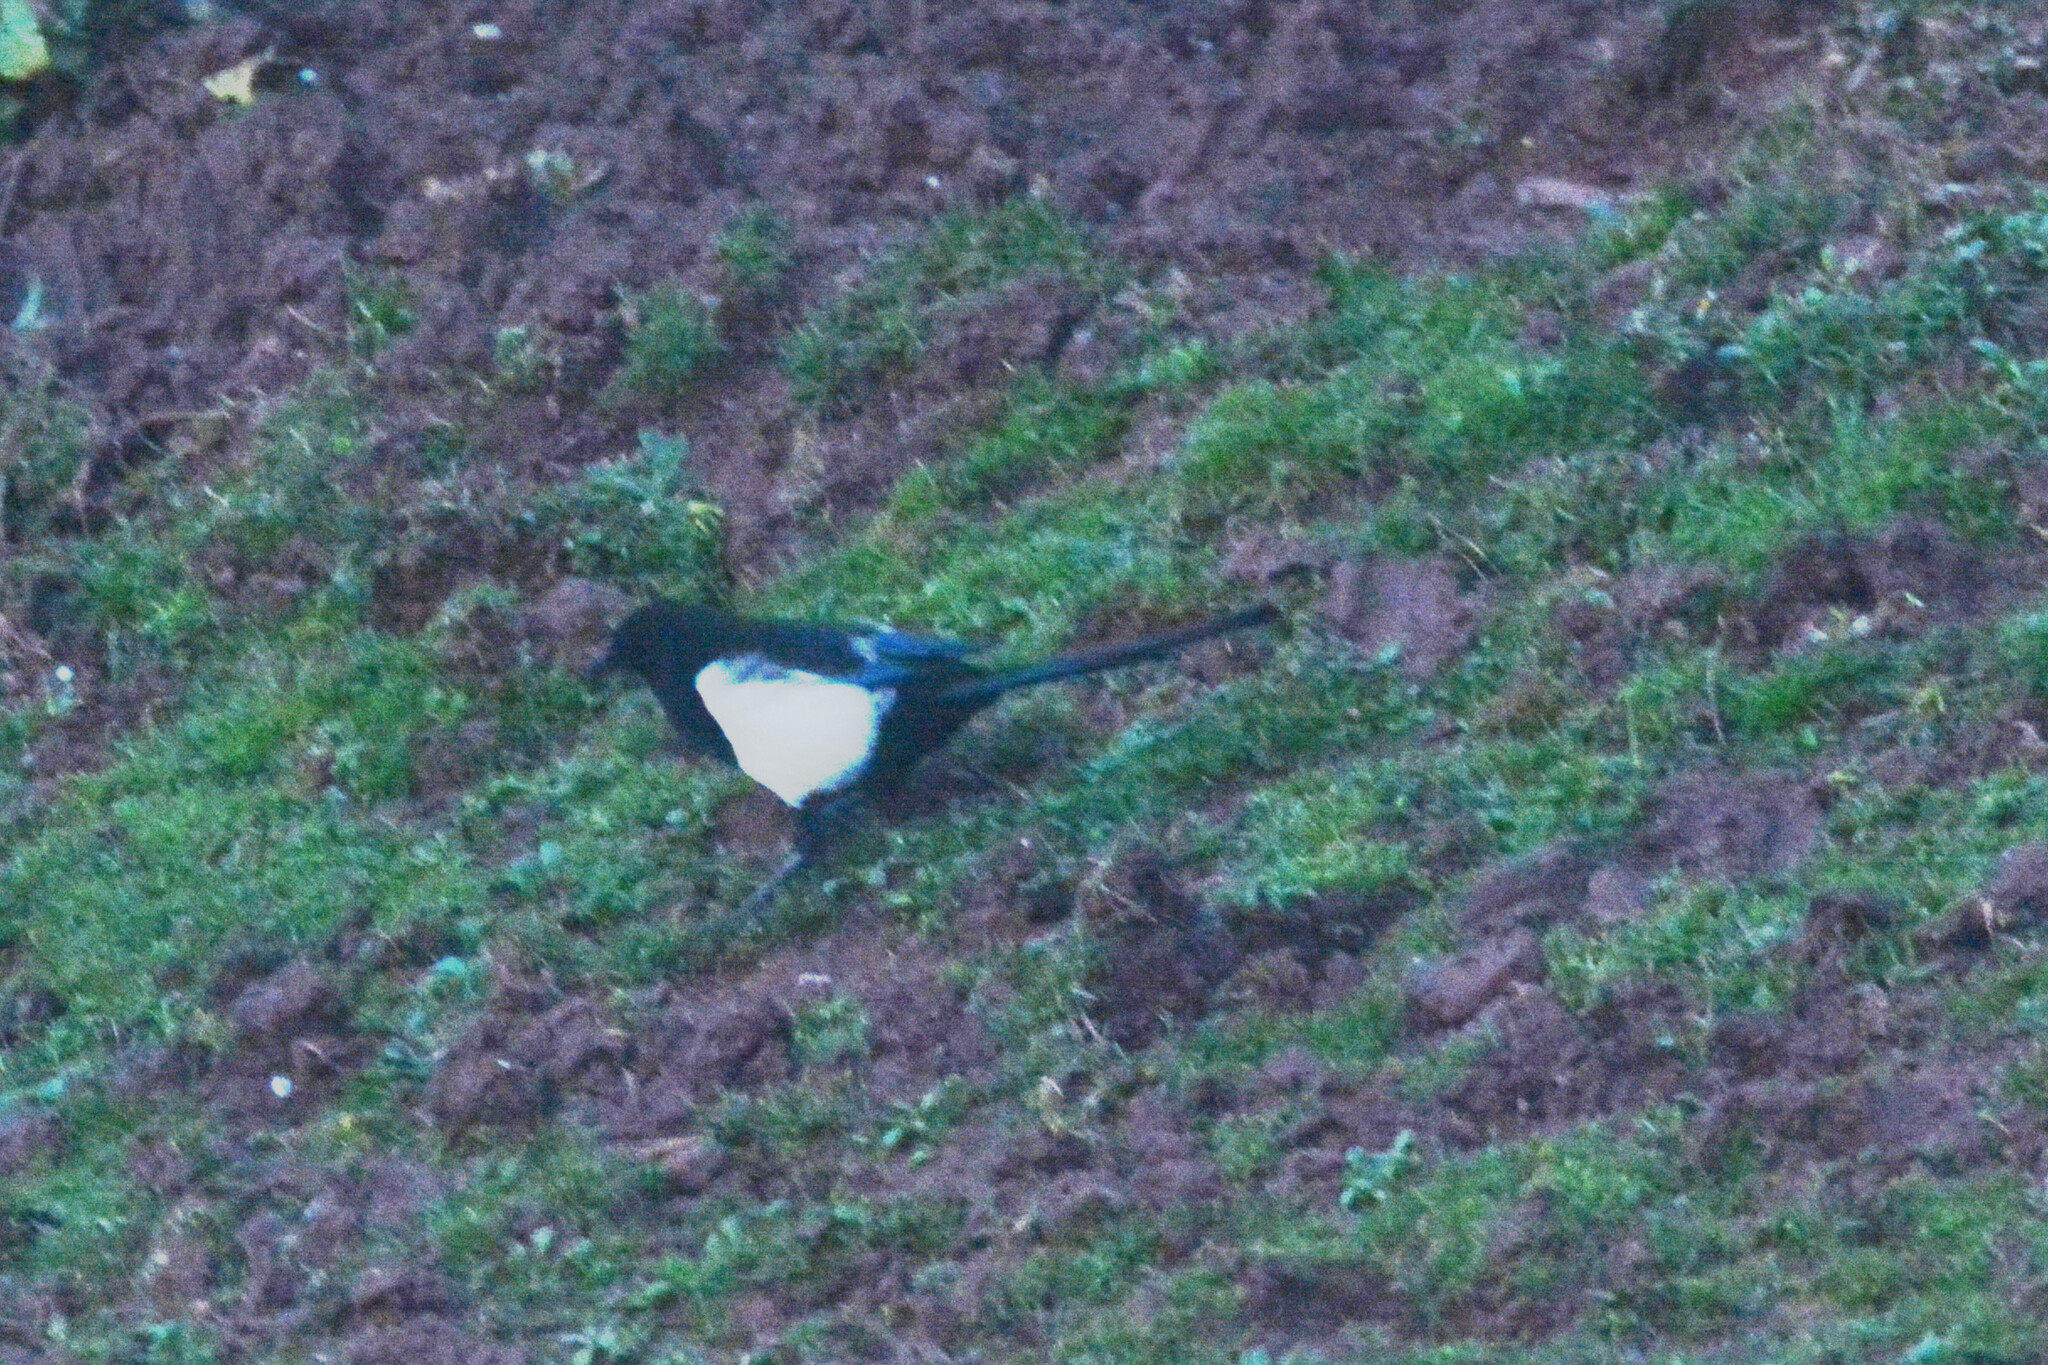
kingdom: Animalia
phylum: Chordata
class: Aves
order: Passeriformes
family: Corvidae
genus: Pica
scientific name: Pica pica
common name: Eurasian magpie
